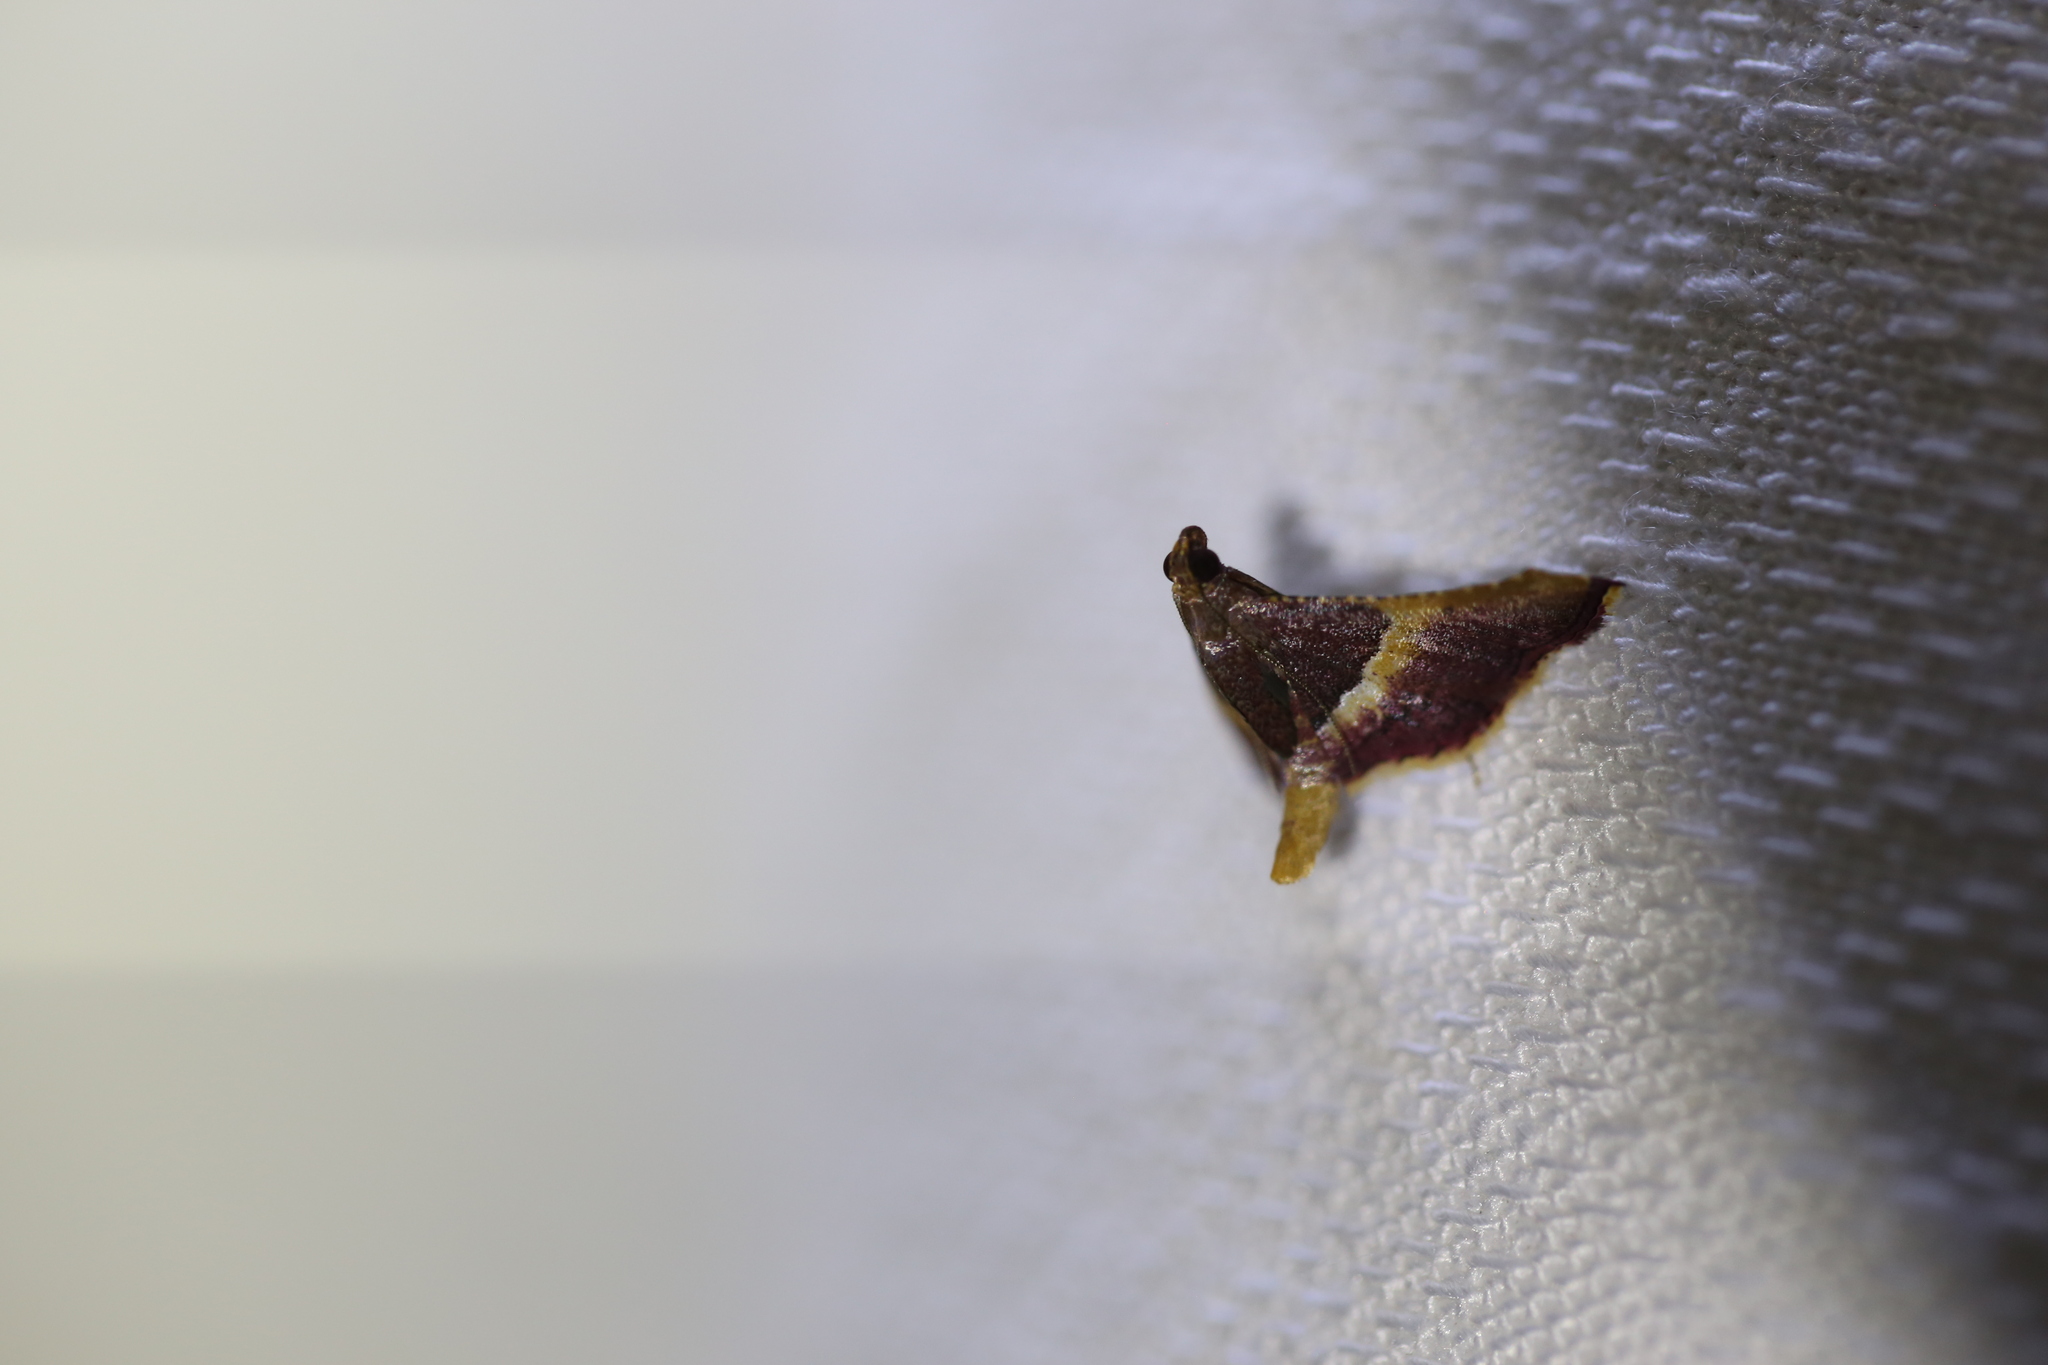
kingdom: Animalia
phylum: Arthropoda
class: Insecta
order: Lepidoptera
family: Pyralidae
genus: Endotricha
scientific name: Endotricha mesenterialis
